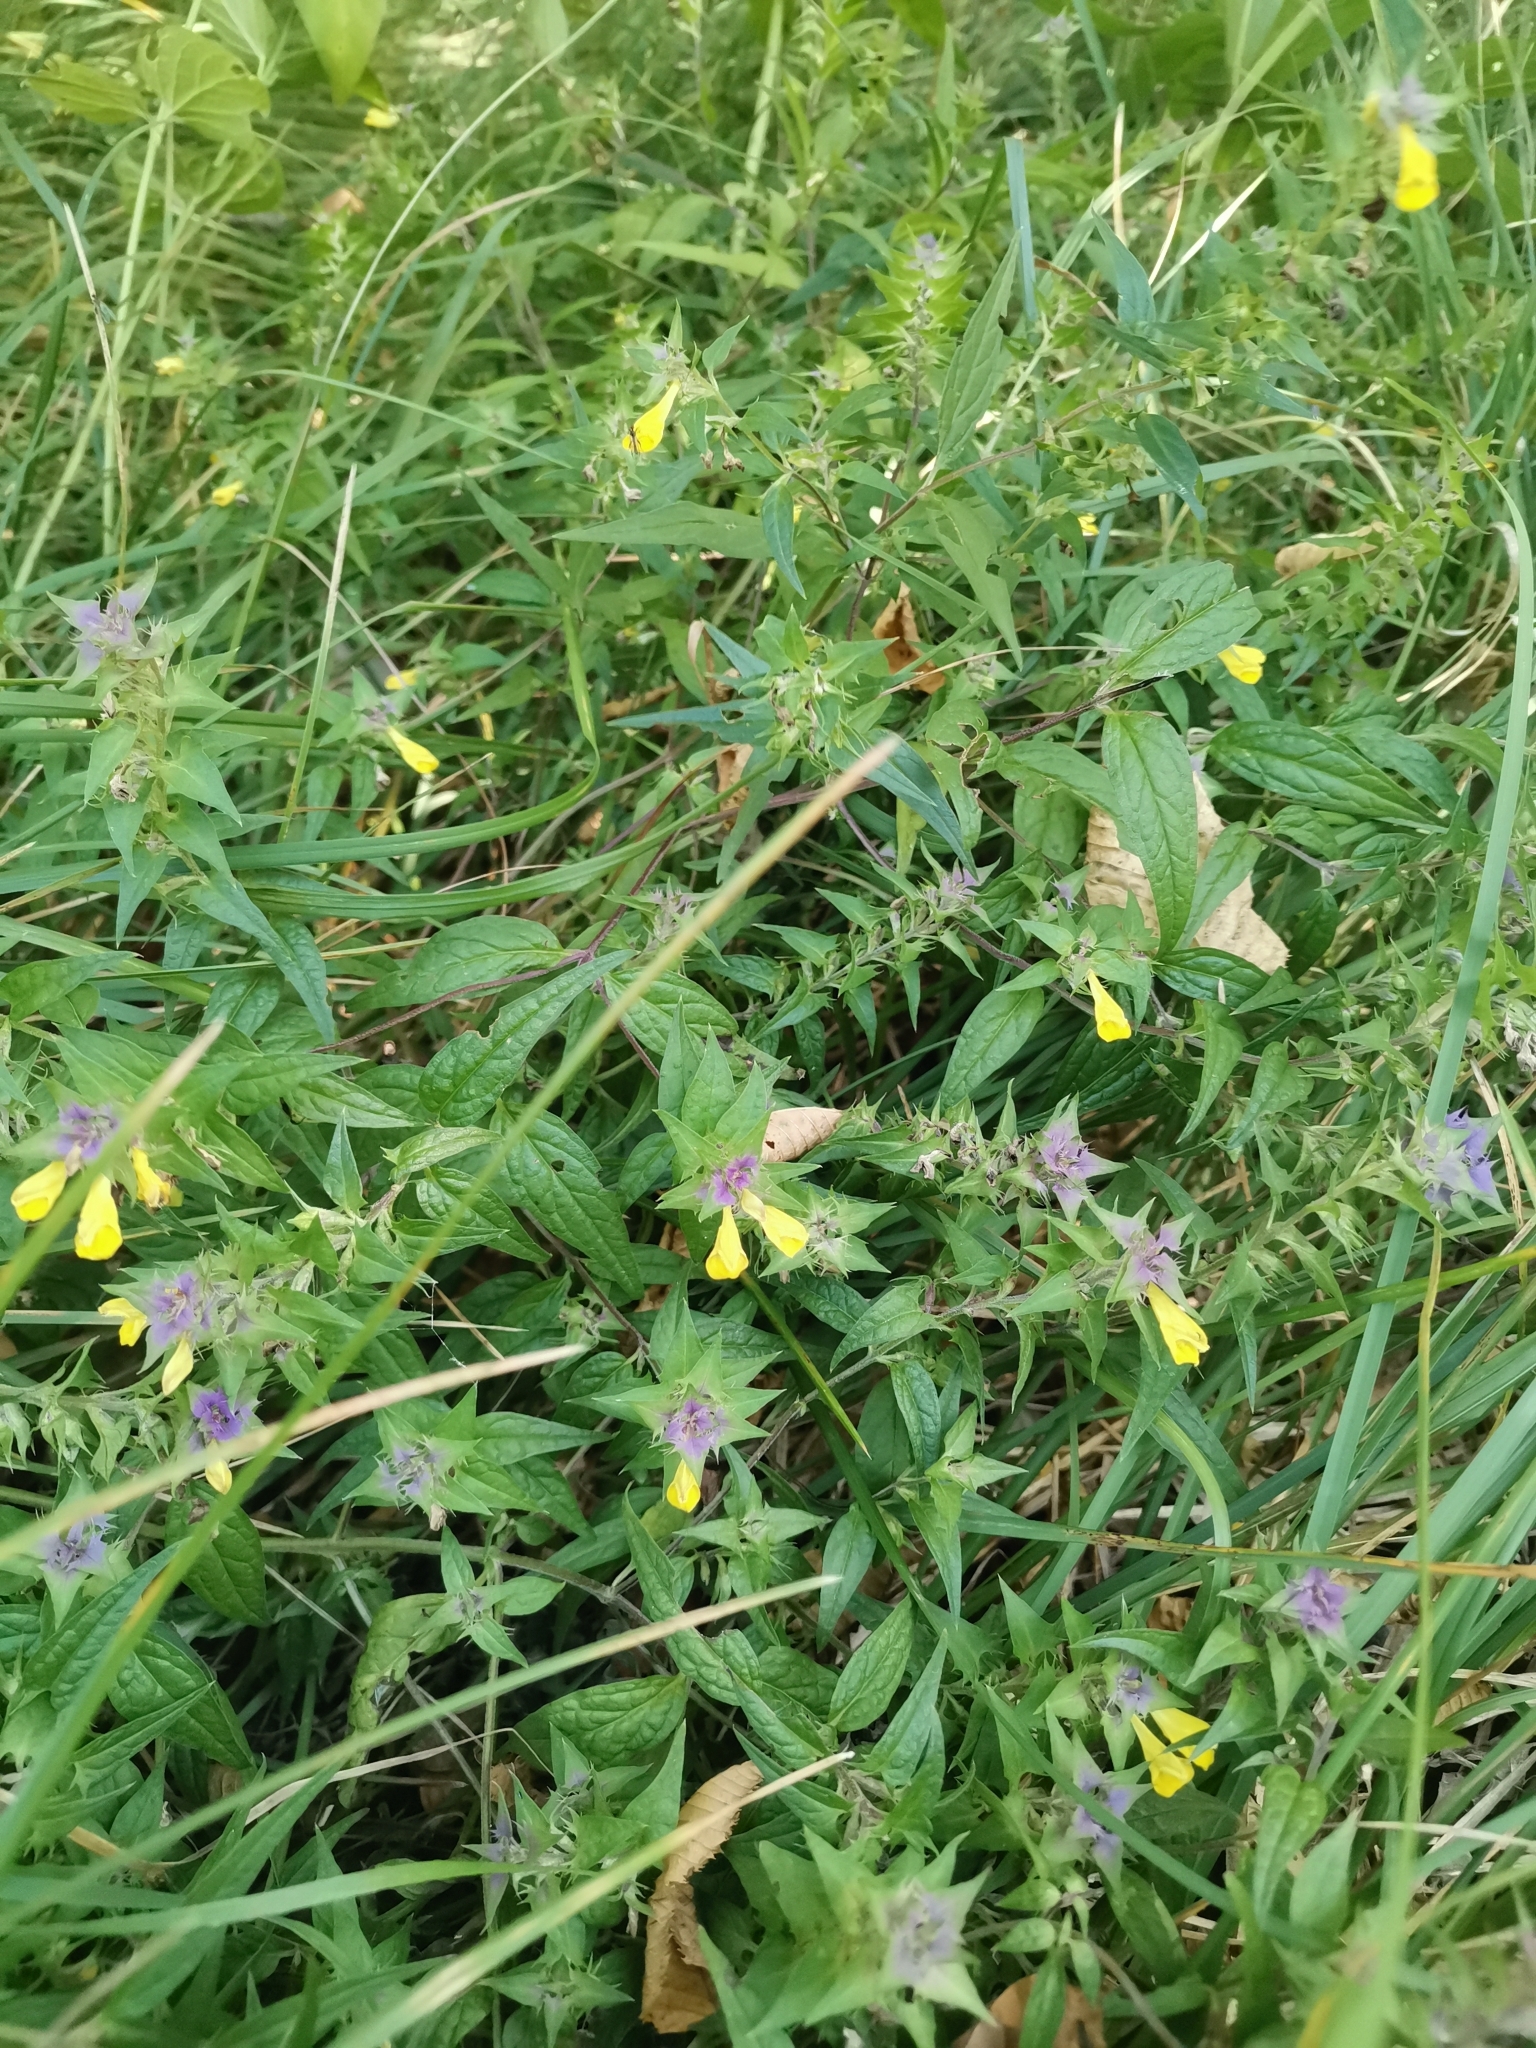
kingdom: Plantae
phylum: Tracheophyta
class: Magnoliopsida
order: Lamiales
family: Orobanchaceae
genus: Melampyrum
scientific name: Melampyrum nemorosum
